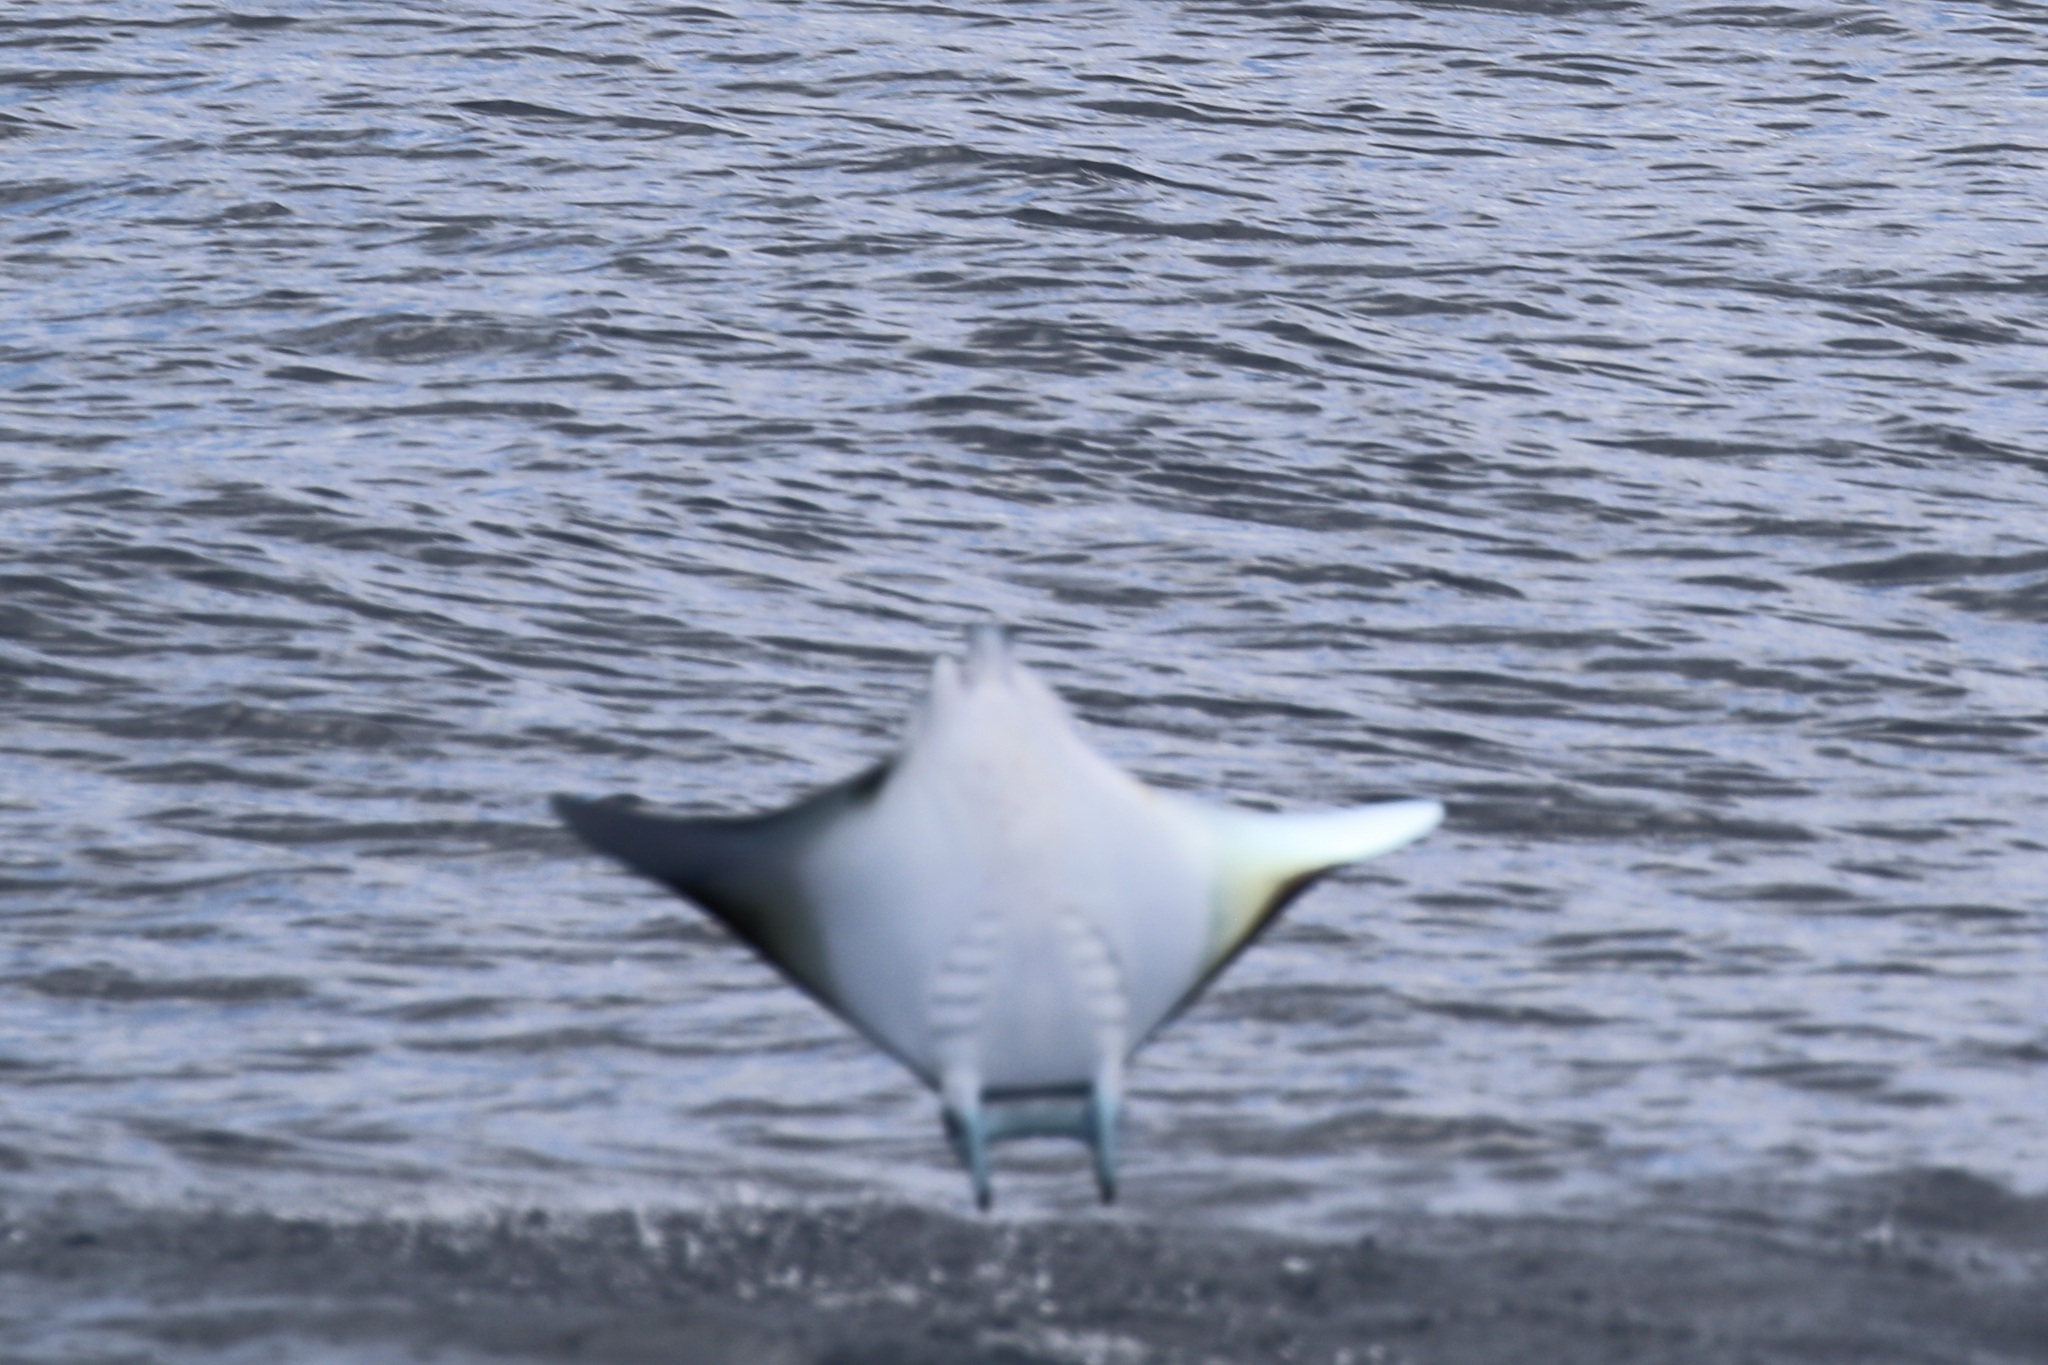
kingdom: Animalia
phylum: Chordata
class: Elasmobranchii
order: Myliobatiformes
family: Myliobatidae
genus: Mobula
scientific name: Mobula thurstoni
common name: Smoothtail mobula
